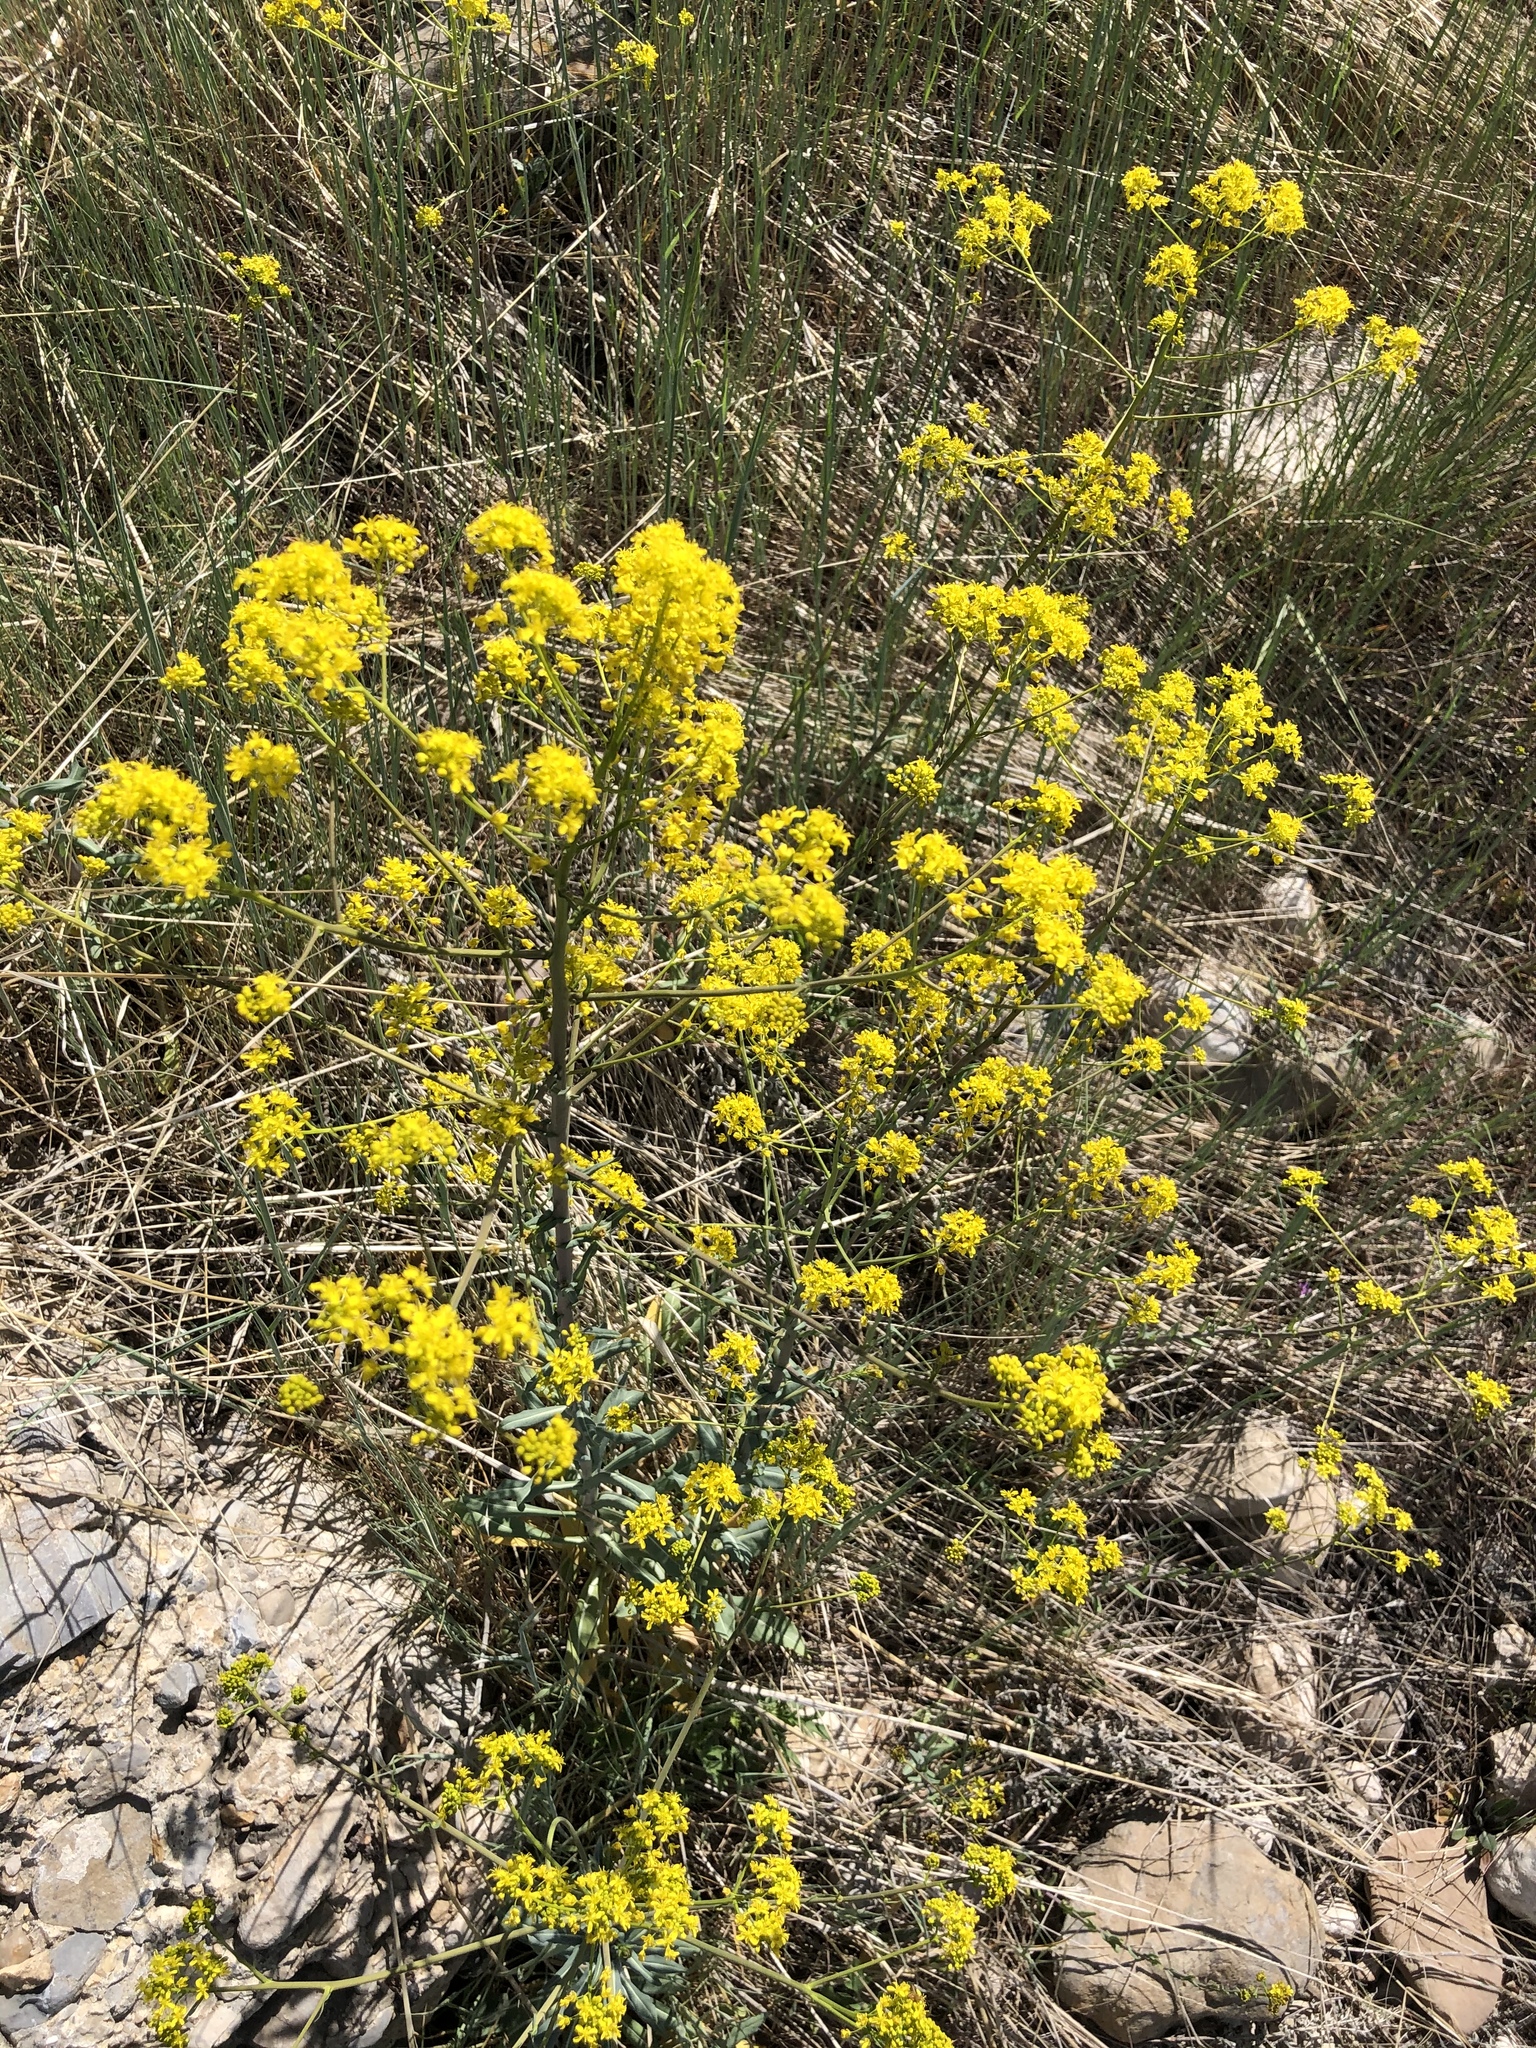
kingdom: Plantae
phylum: Tracheophyta
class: Magnoliopsida
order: Brassicales
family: Brassicaceae
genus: Isatis
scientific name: Isatis tinctoria
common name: Woad
